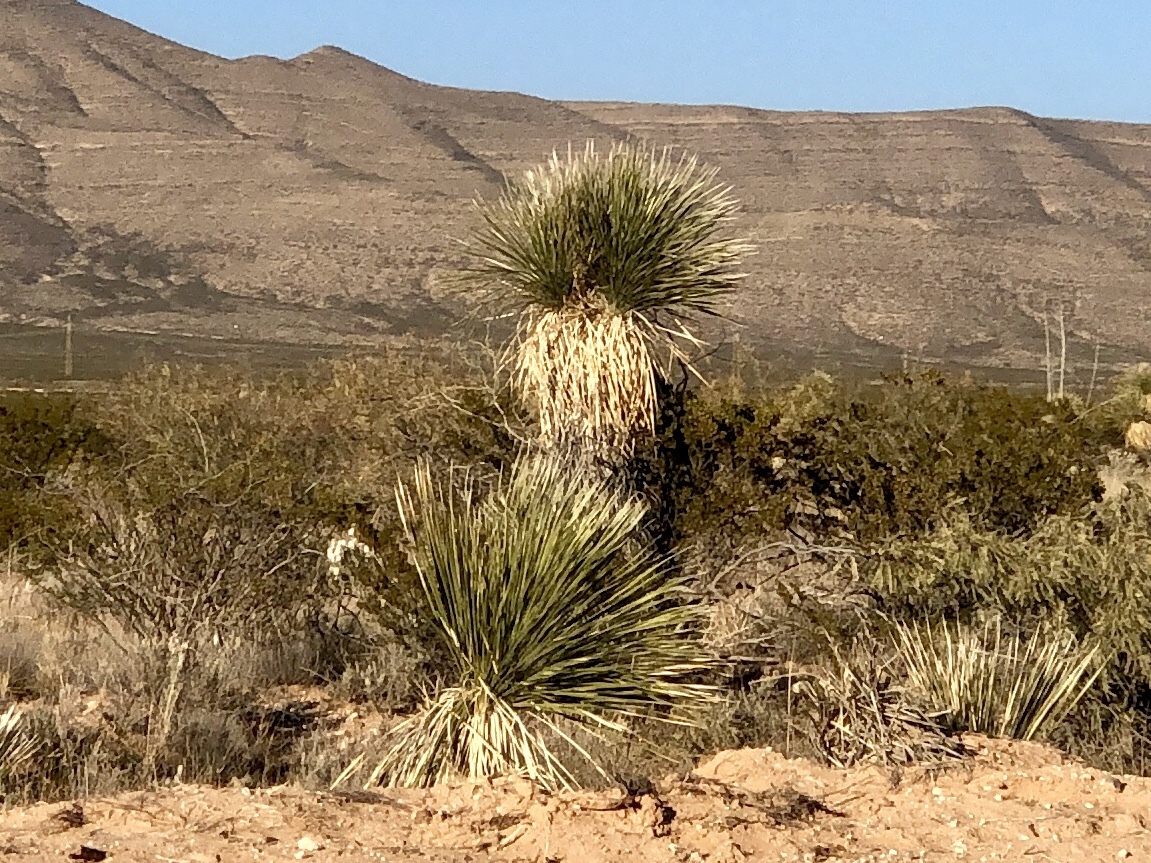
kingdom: Plantae
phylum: Tracheophyta
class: Liliopsida
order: Asparagales
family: Asparagaceae
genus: Yucca
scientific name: Yucca elata
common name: Palmella
